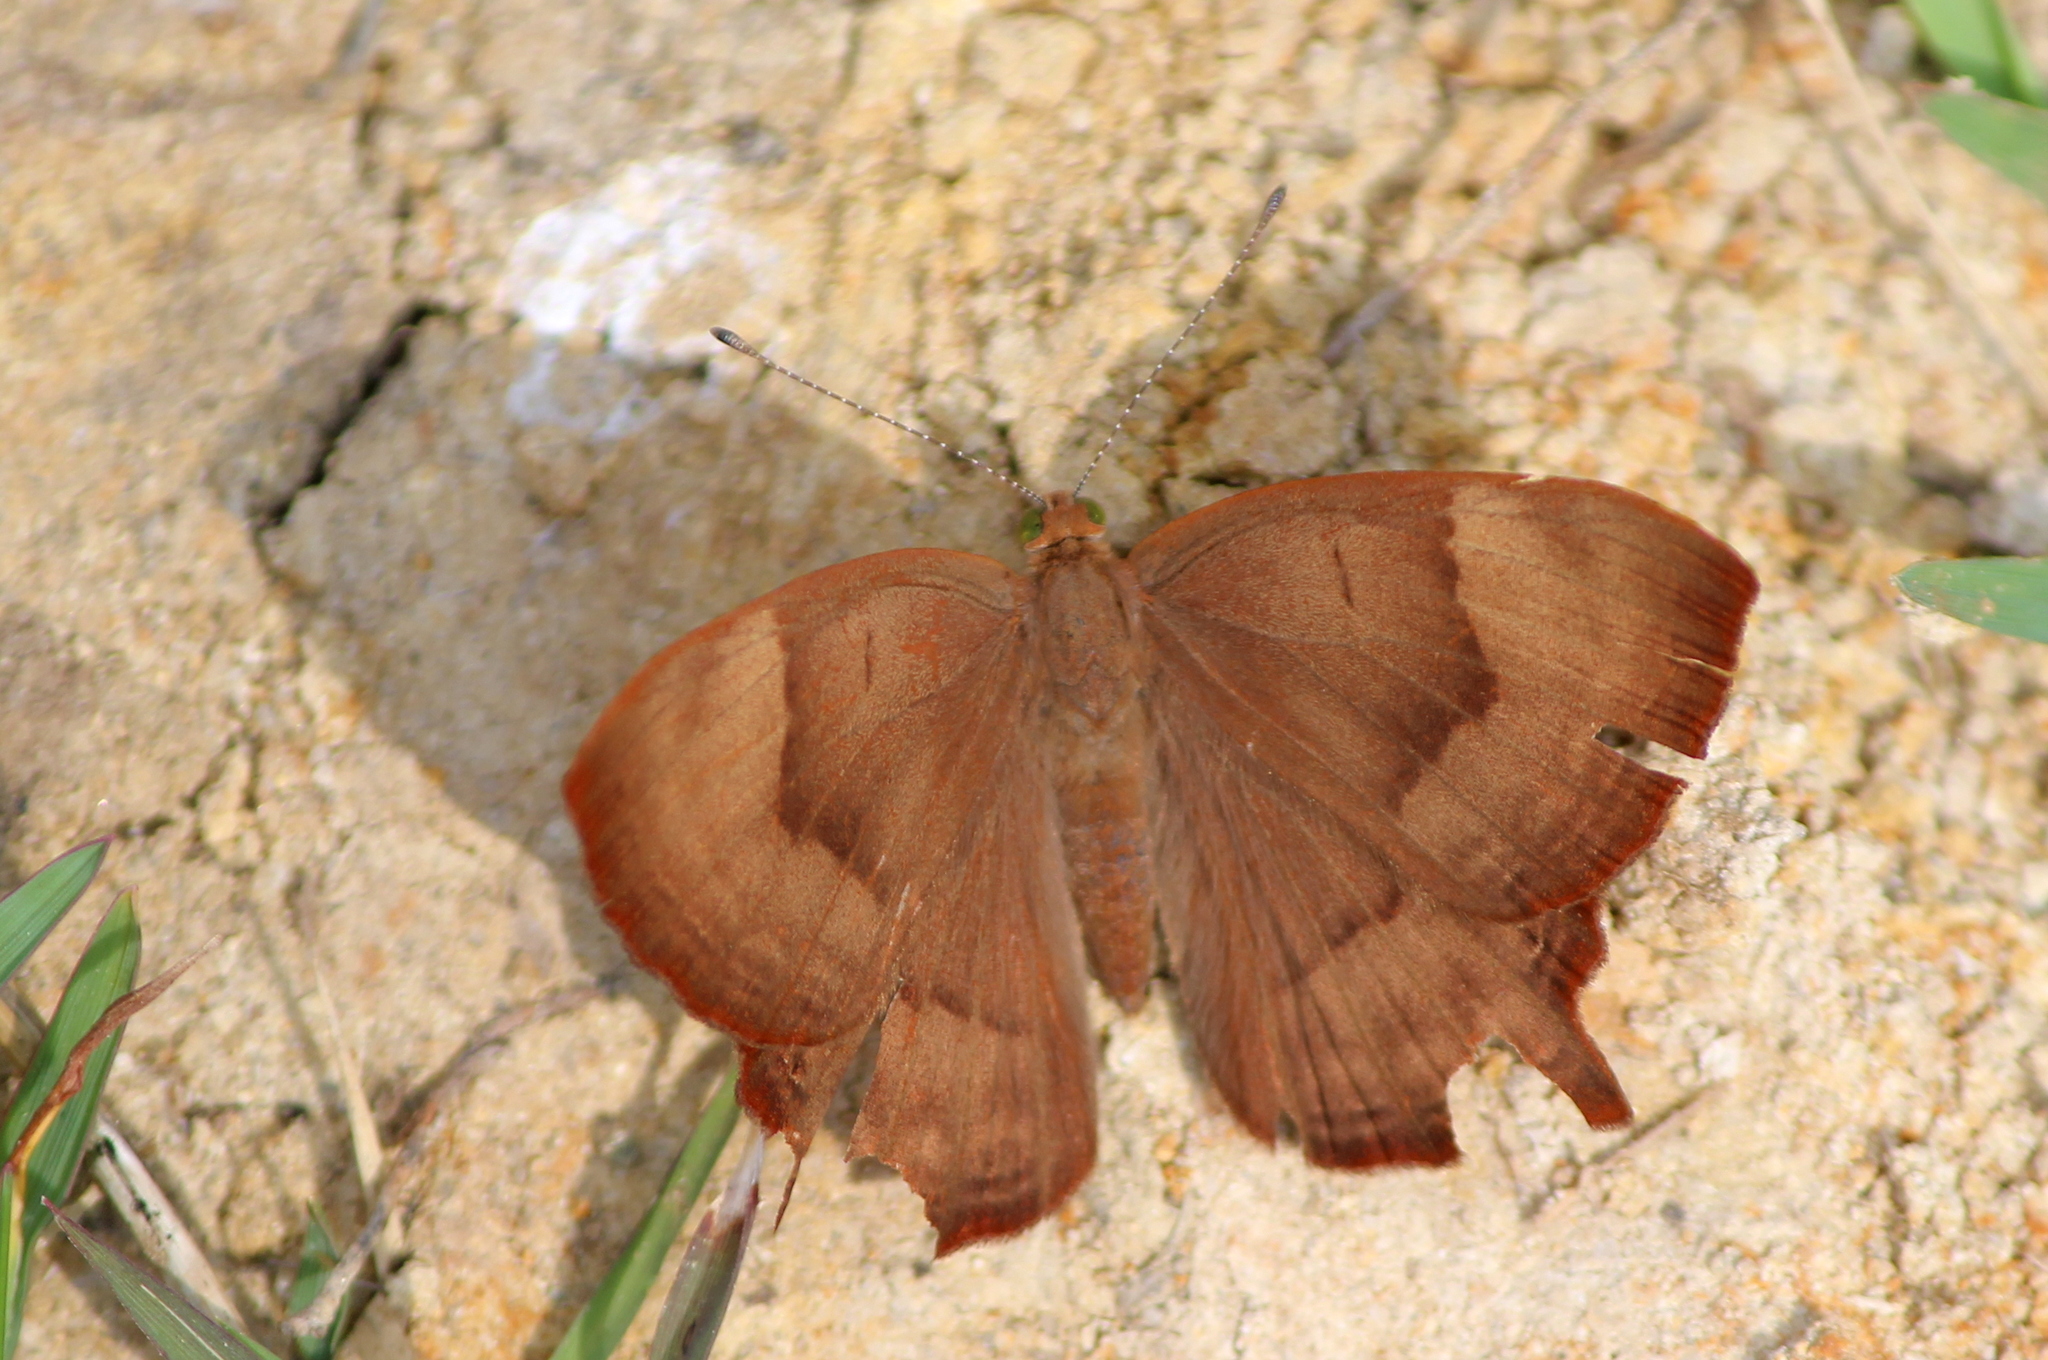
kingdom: Animalia
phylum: Arthropoda
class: Insecta
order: Lepidoptera
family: Lycaenidae
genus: Abisara
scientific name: Abisara bifasciata
